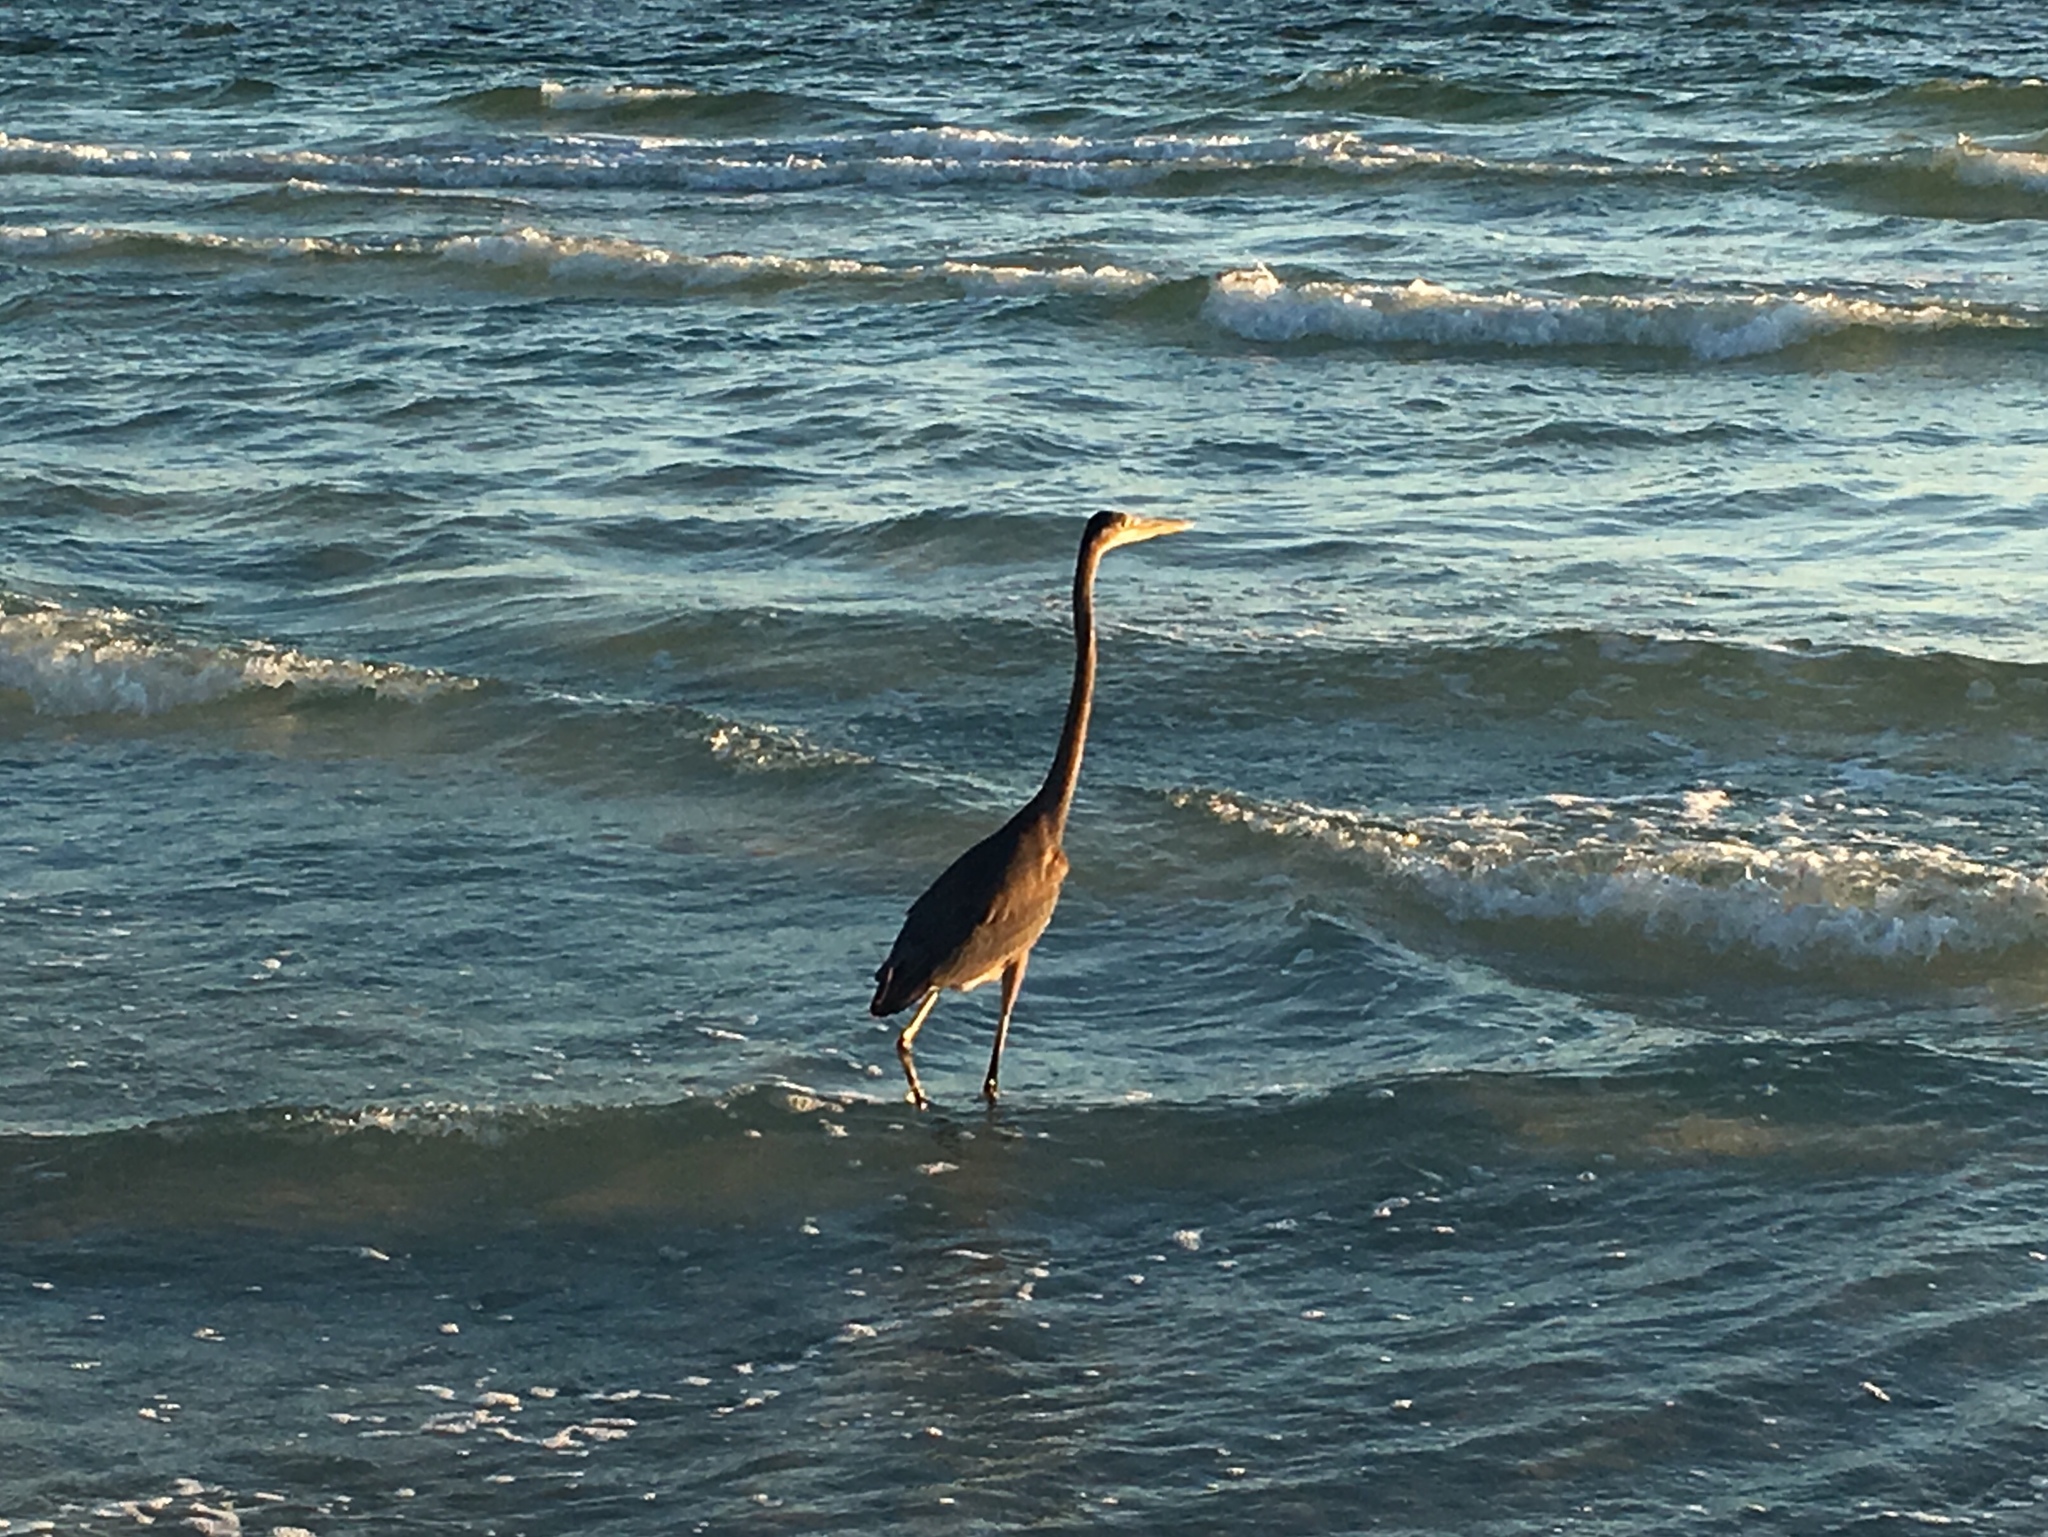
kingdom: Animalia
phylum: Chordata
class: Aves
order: Pelecaniformes
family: Ardeidae
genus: Ardea
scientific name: Ardea herodias
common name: Great blue heron
